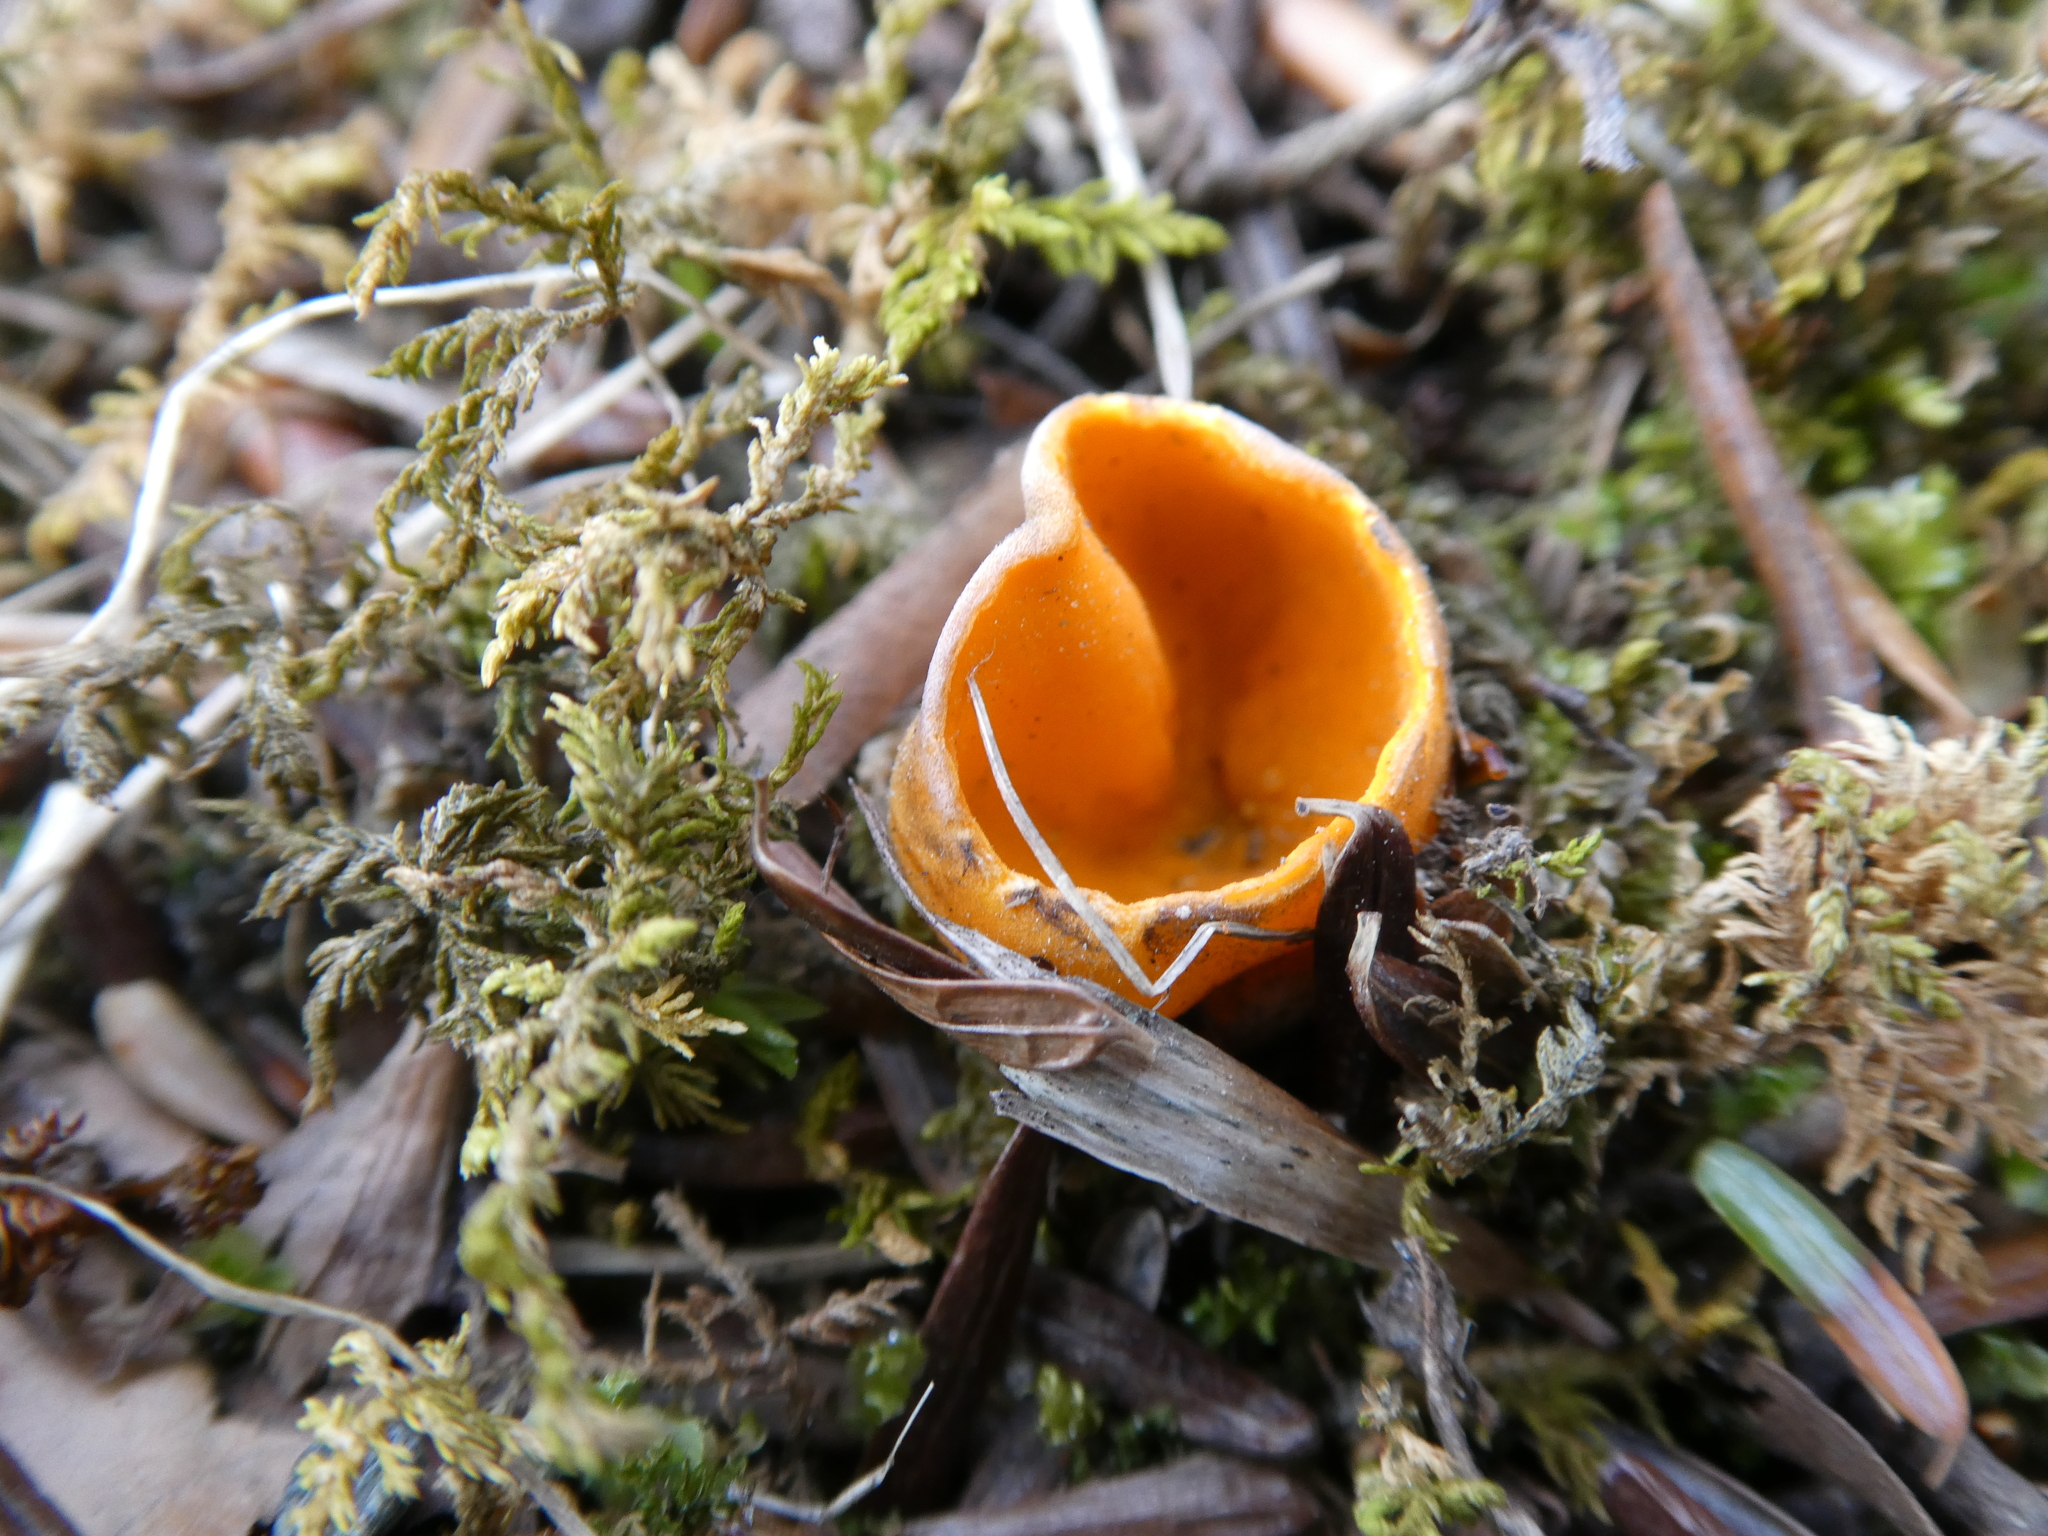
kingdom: Fungi
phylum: Ascomycota
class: Pezizomycetes
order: Pezizales
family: Caloscyphaceae
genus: Caloscypha
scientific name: Caloscypha fulgens
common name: Golden cup
